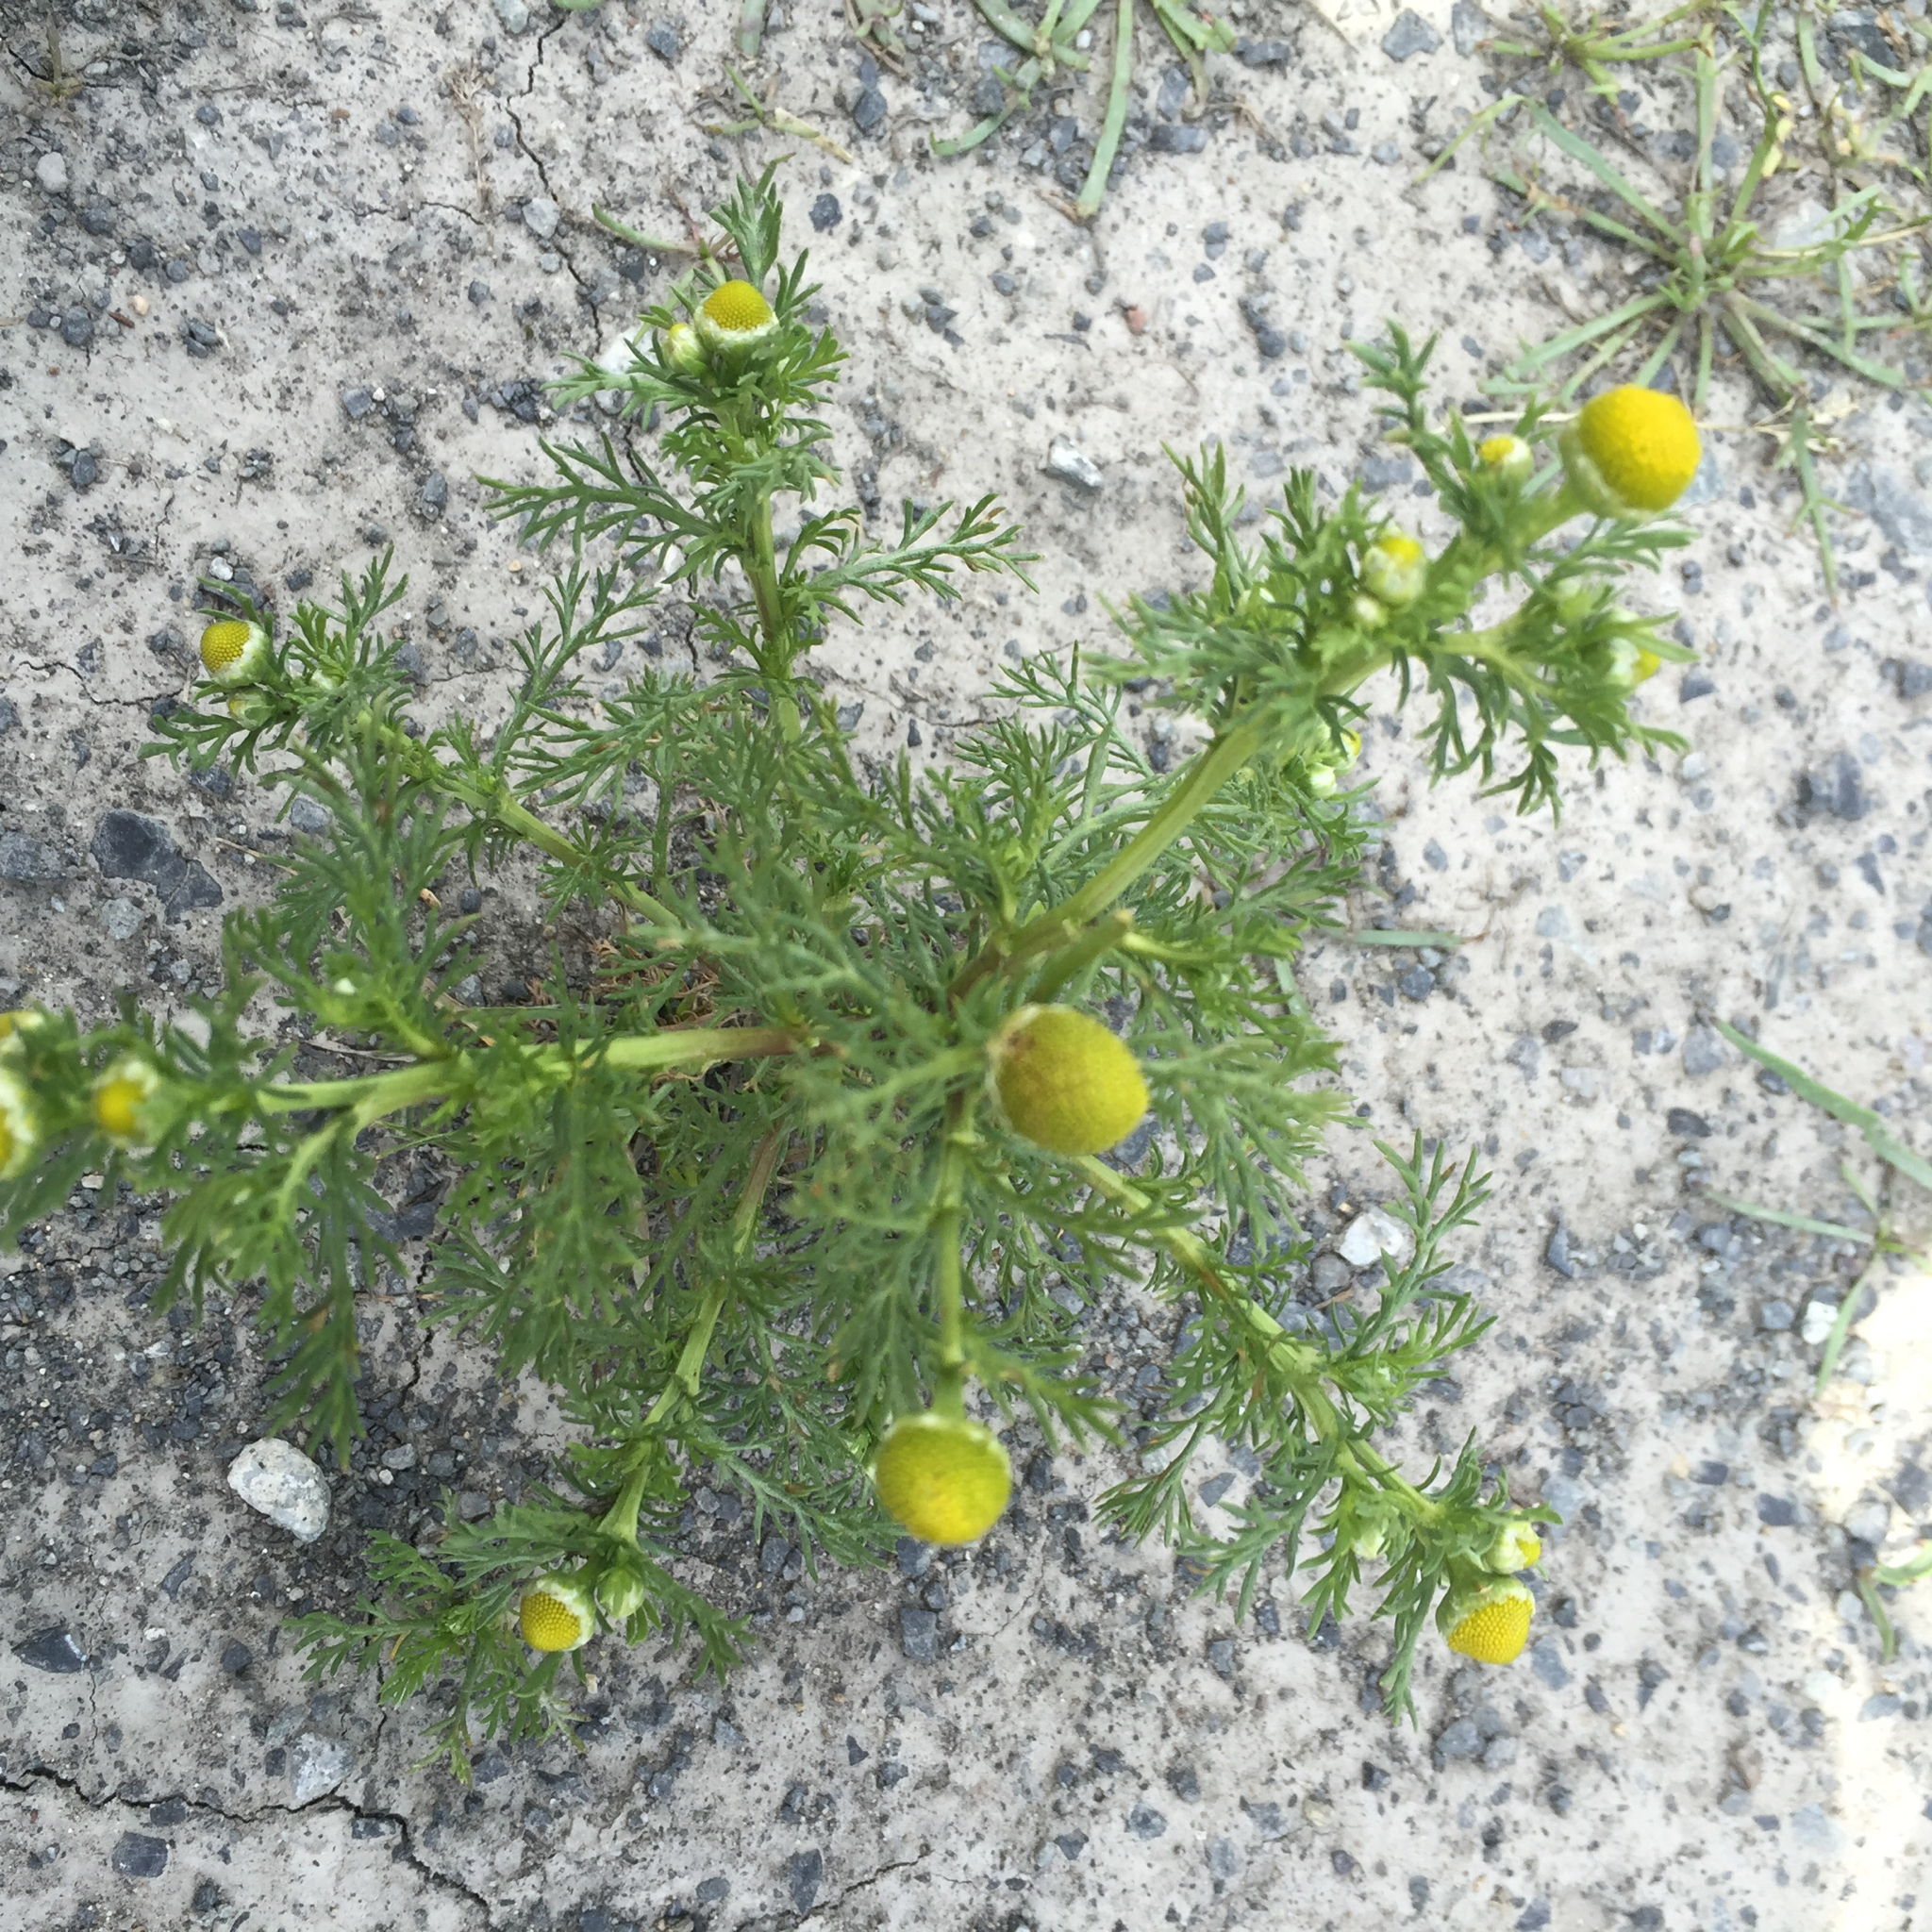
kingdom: Plantae
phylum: Tracheophyta
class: Magnoliopsida
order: Asterales
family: Asteraceae
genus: Matricaria
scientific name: Matricaria discoidea
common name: Disc mayweed
